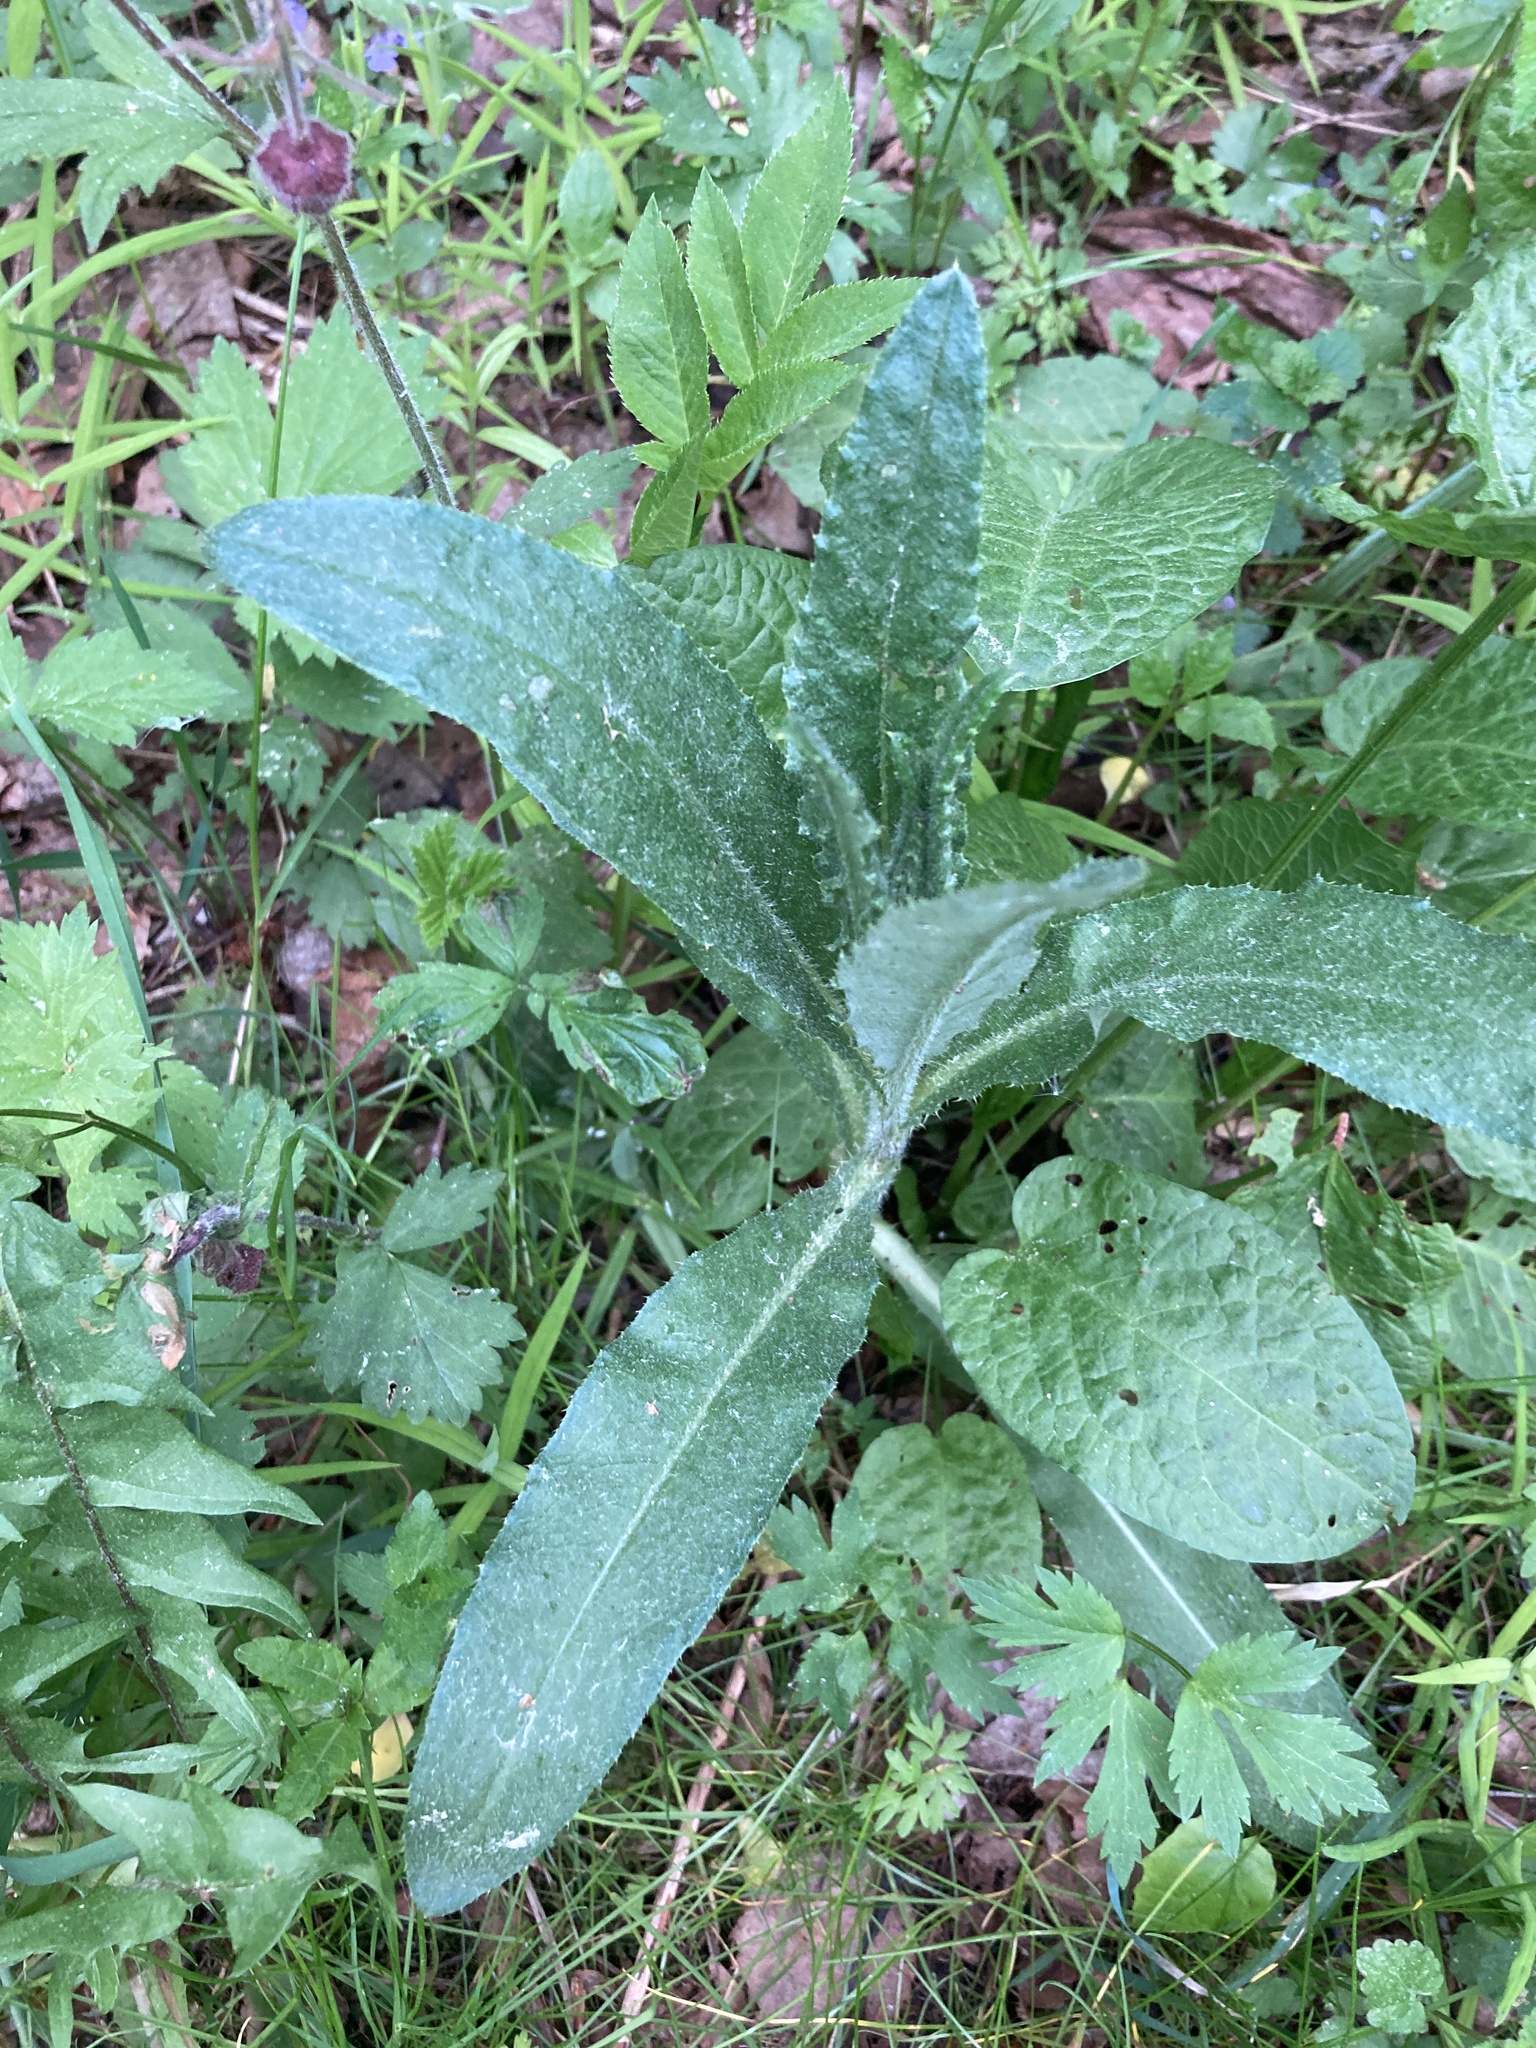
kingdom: Plantae
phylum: Tracheophyta
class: Magnoliopsida
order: Asterales
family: Asteraceae
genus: Cirsium
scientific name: Cirsium arvense
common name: Creeping thistle
